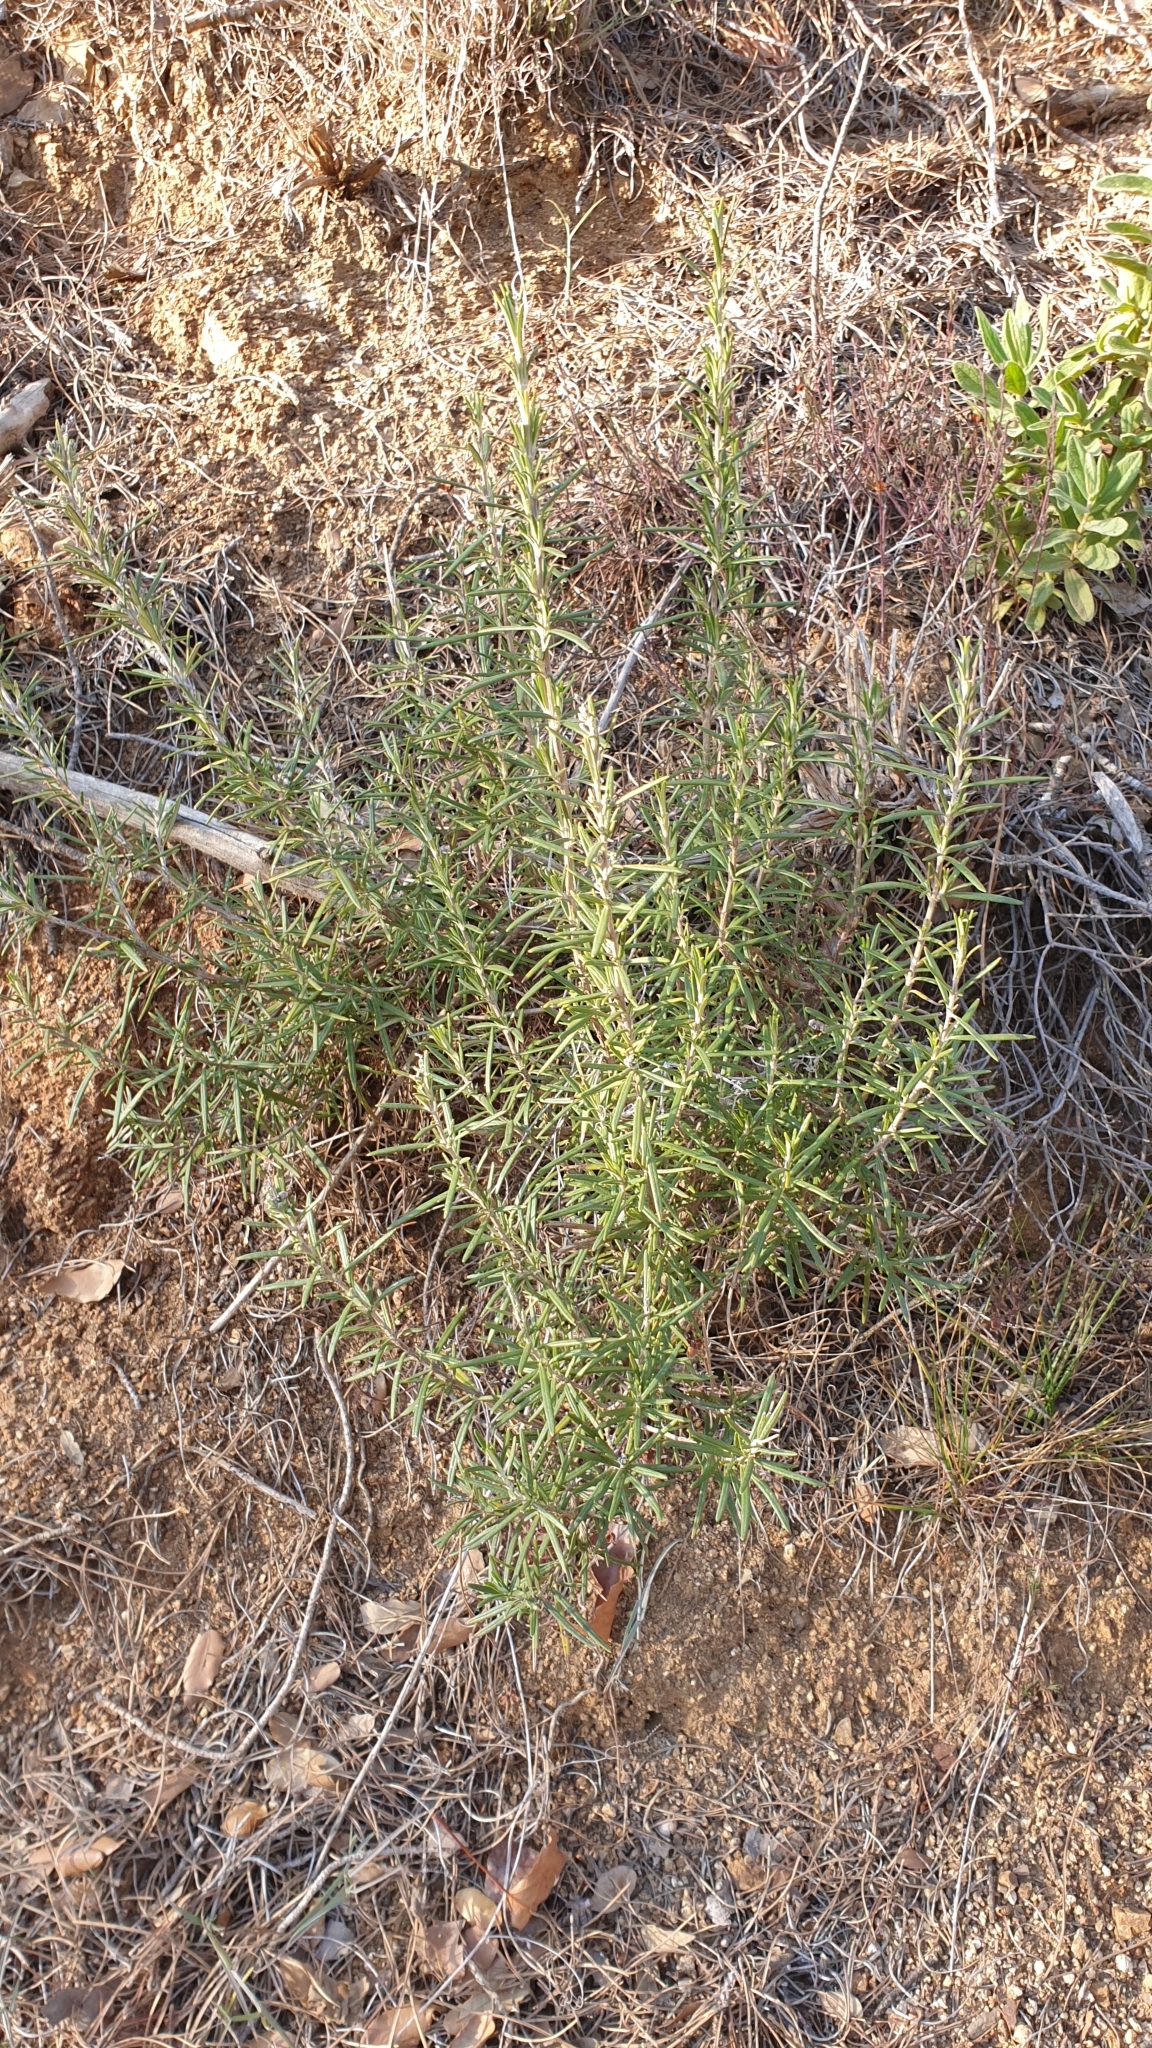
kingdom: Plantae
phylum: Tracheophyta
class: Magnoliopsida
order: Lamiales
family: Lamiaceae
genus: Salvia
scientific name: Salvia rosmarinus
